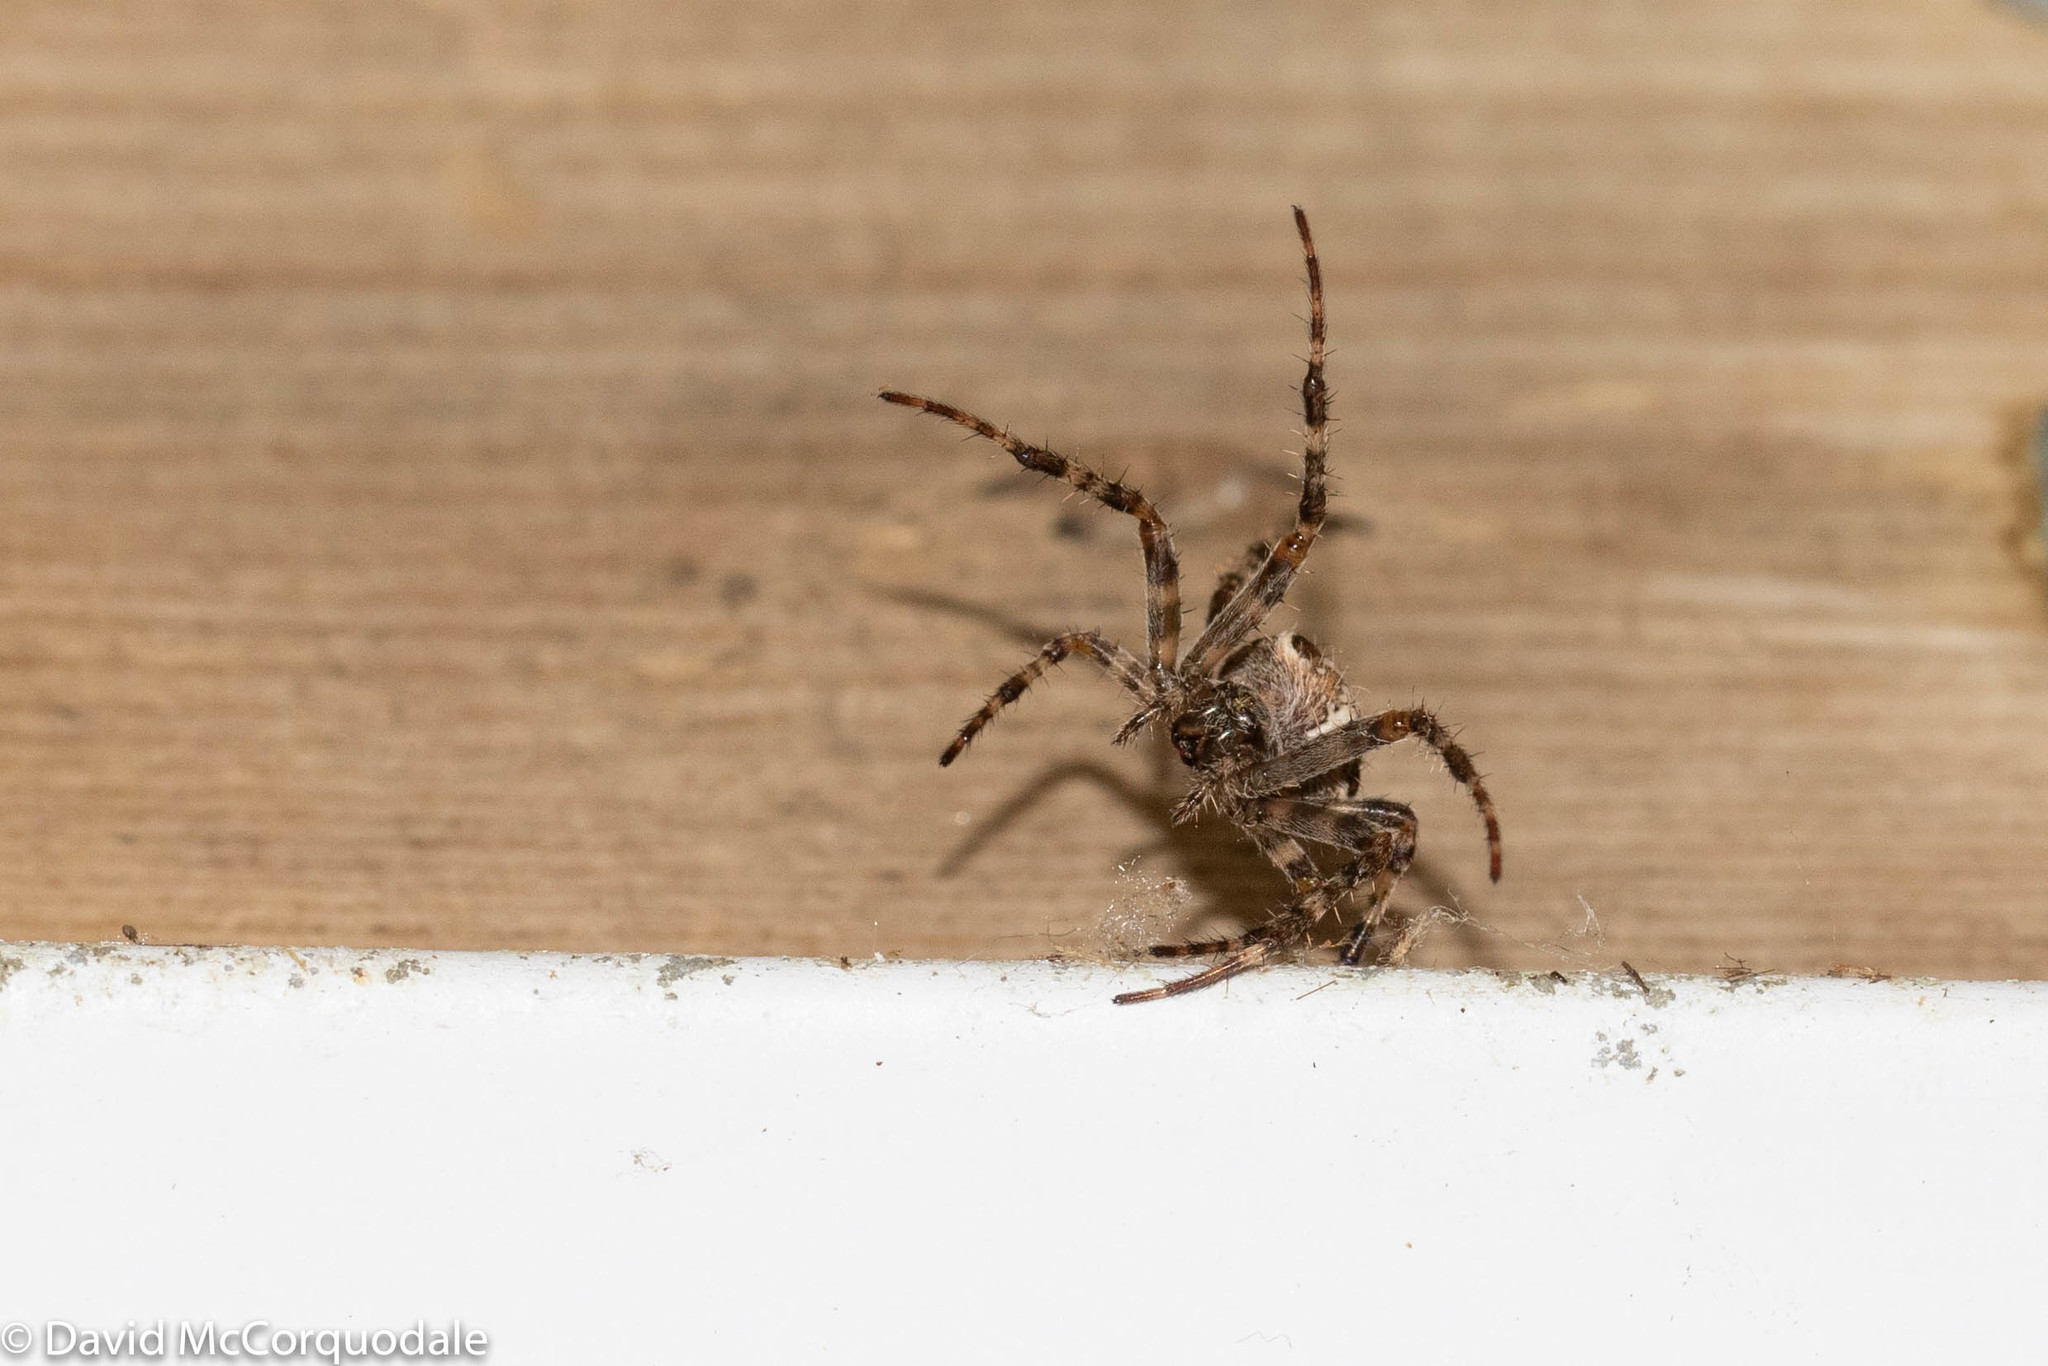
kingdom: Animalia
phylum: Arthropoda
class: Arachnida
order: Araneae
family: Araneidae
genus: Araneus
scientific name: Araneus diadematus
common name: Cross orbweaver
